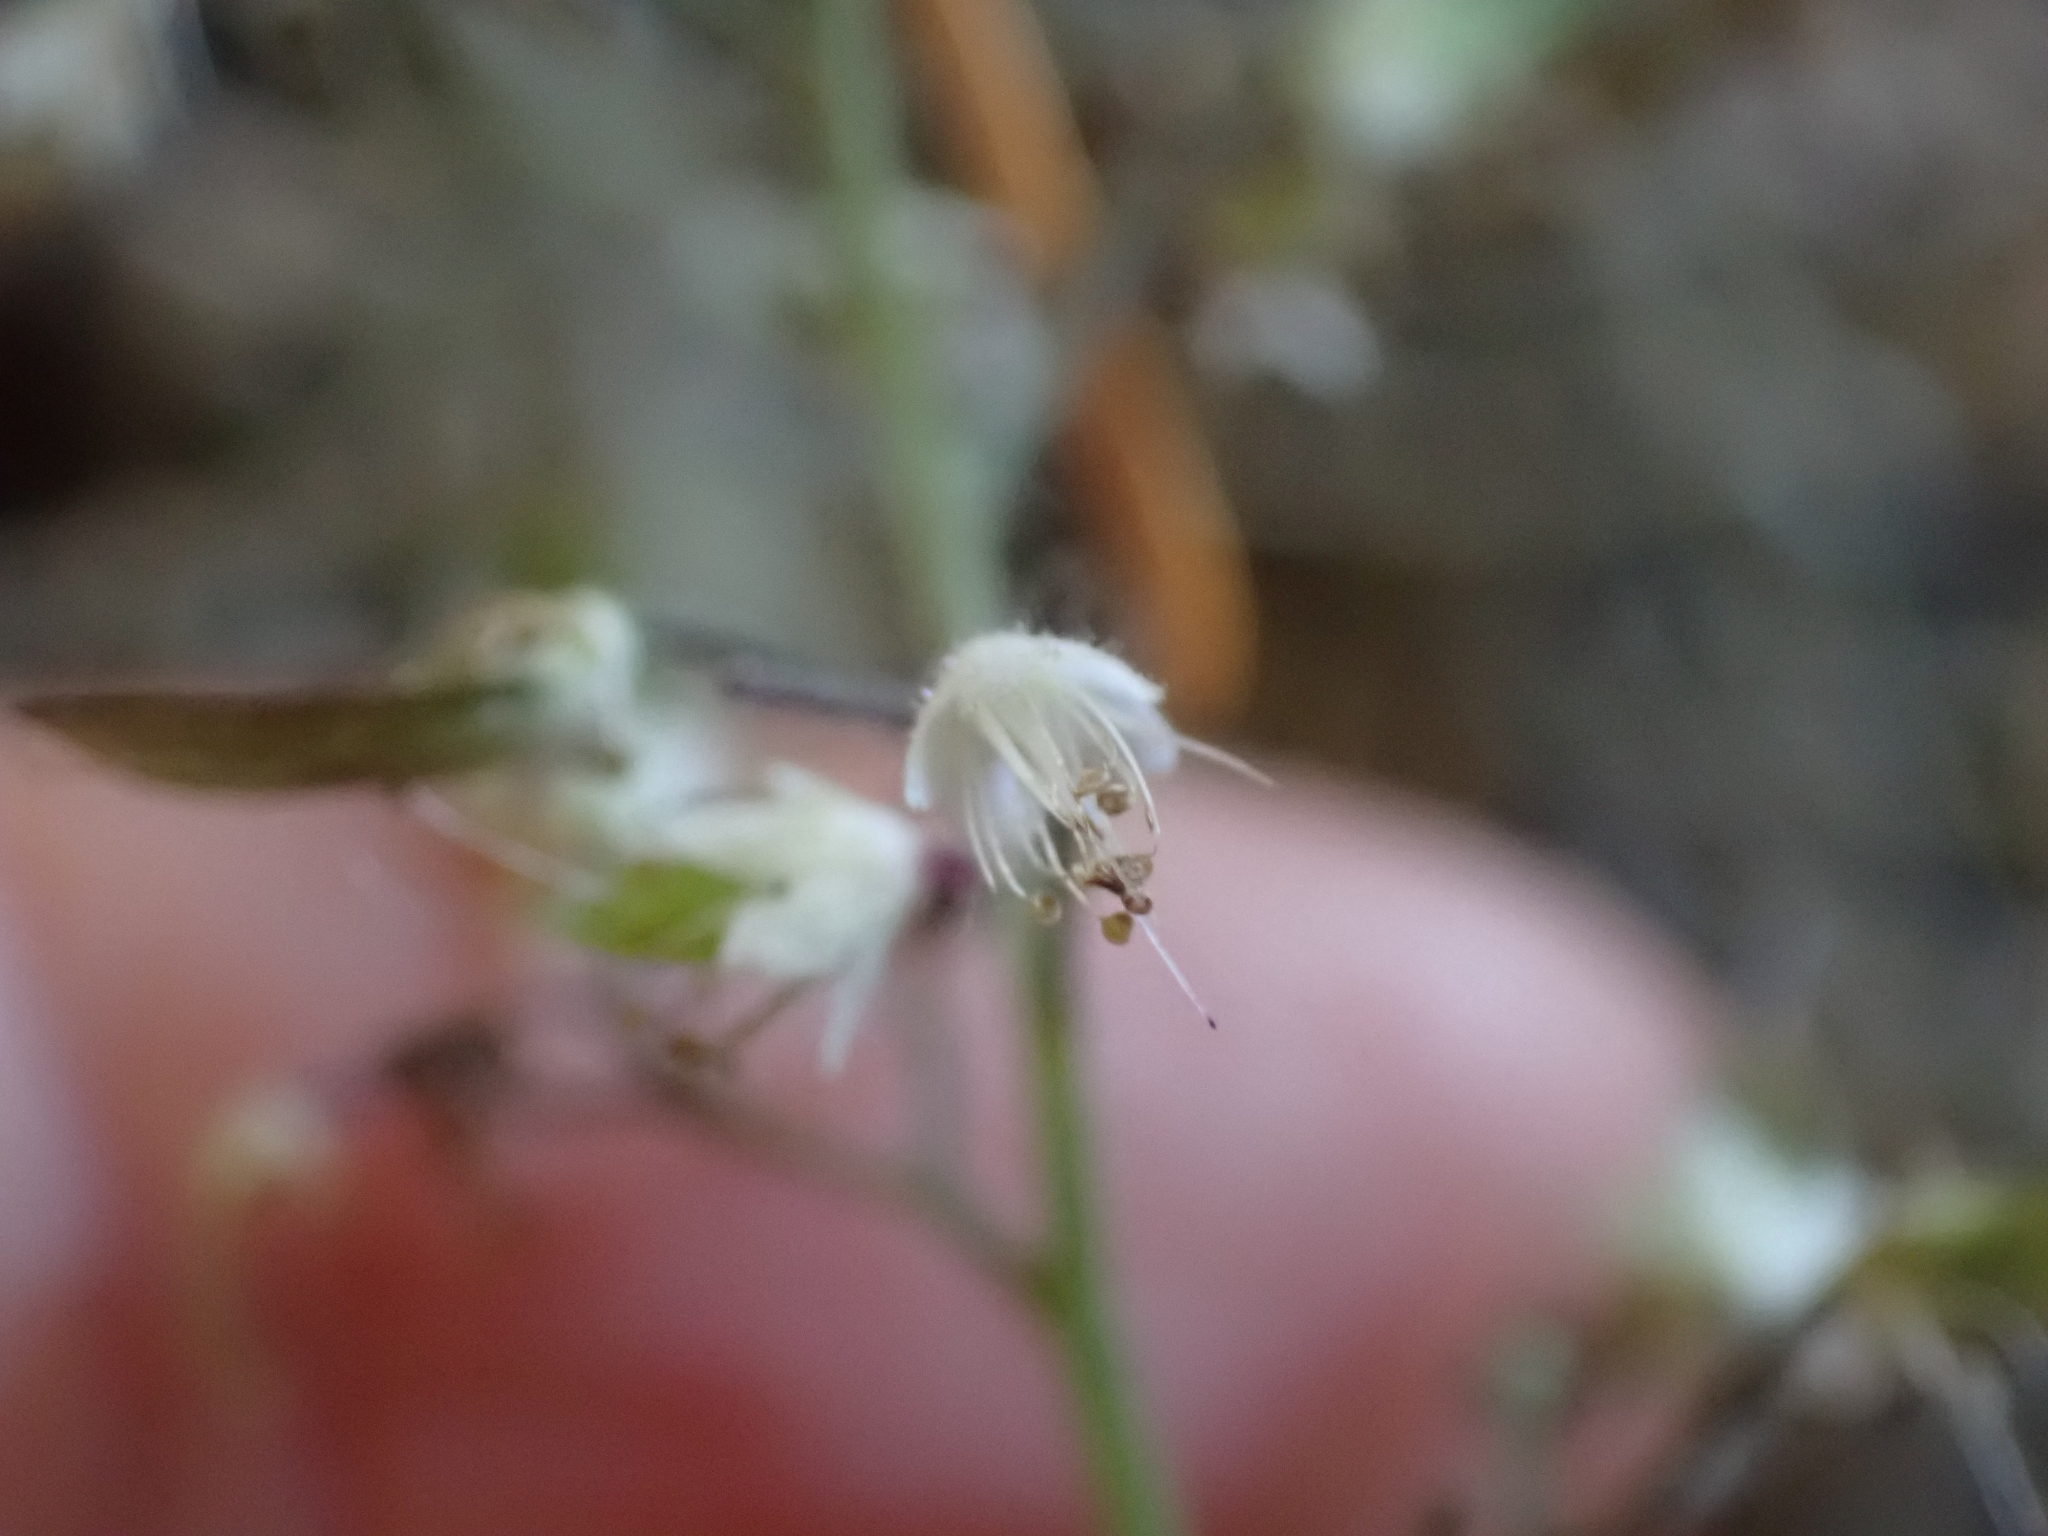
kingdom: Plantae
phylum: Tracheophyta
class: Magnoliopsida
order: Saxifragales
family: Saxifragaceae
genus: Tiarella
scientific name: Tiarella trifoliata
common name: Sugar-scoop
